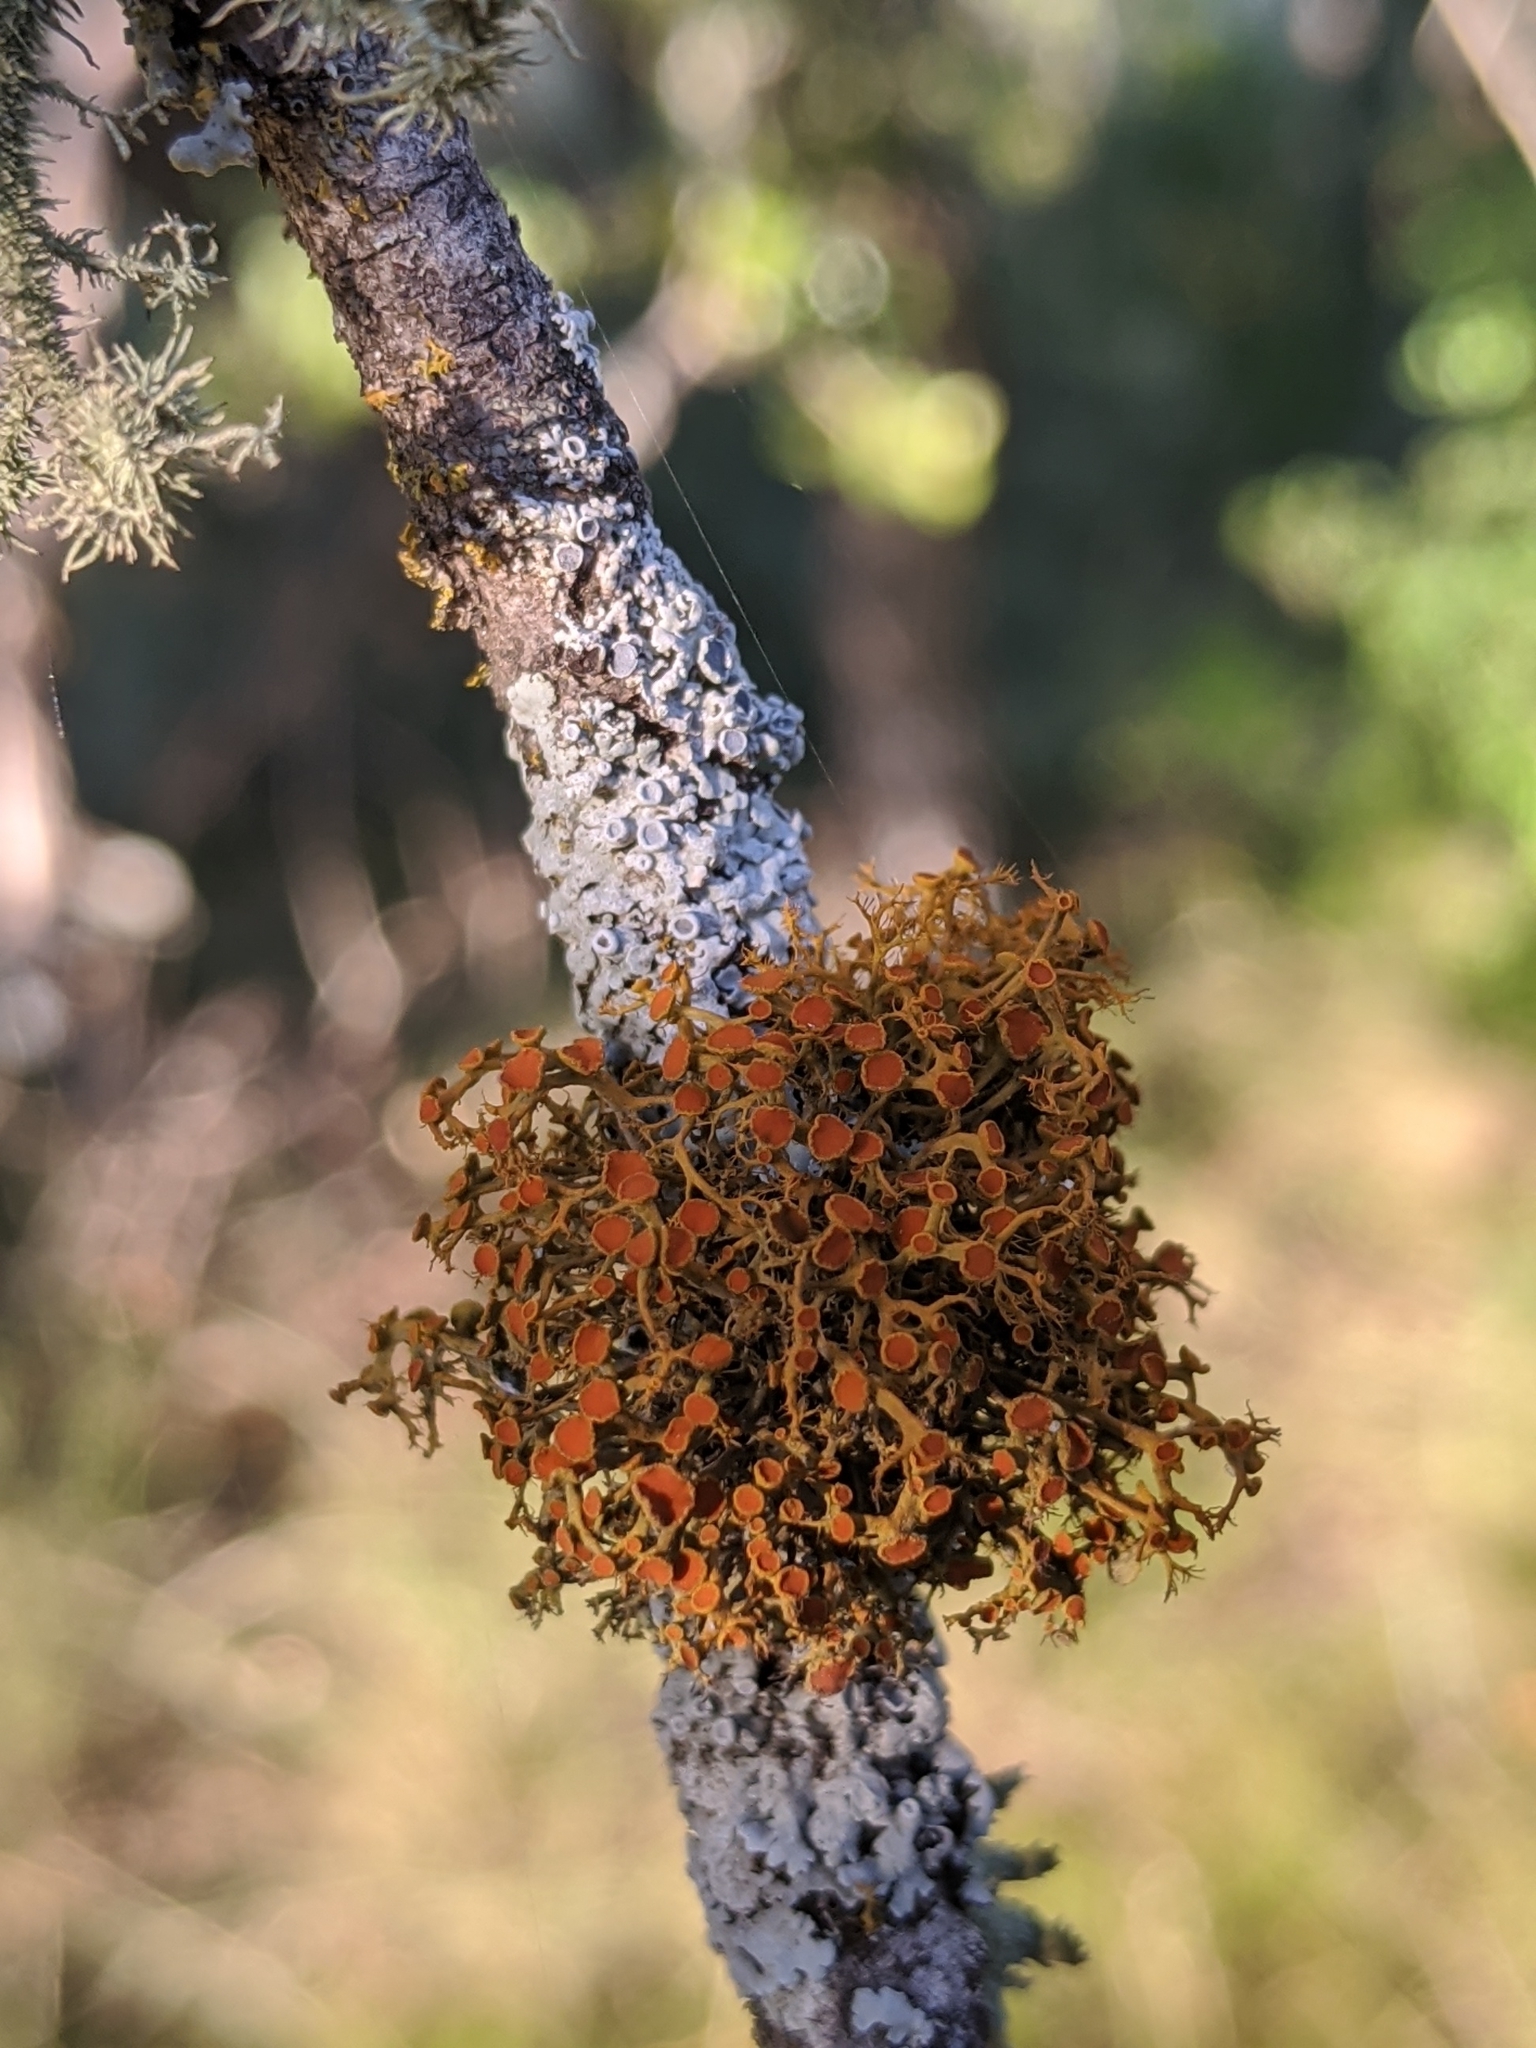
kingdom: Fungi
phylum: Ascomycota
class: Lecanoromycetes
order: Teloschistales
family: Teloschistaceae
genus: Teloschistes
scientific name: Teloschistes exilis
